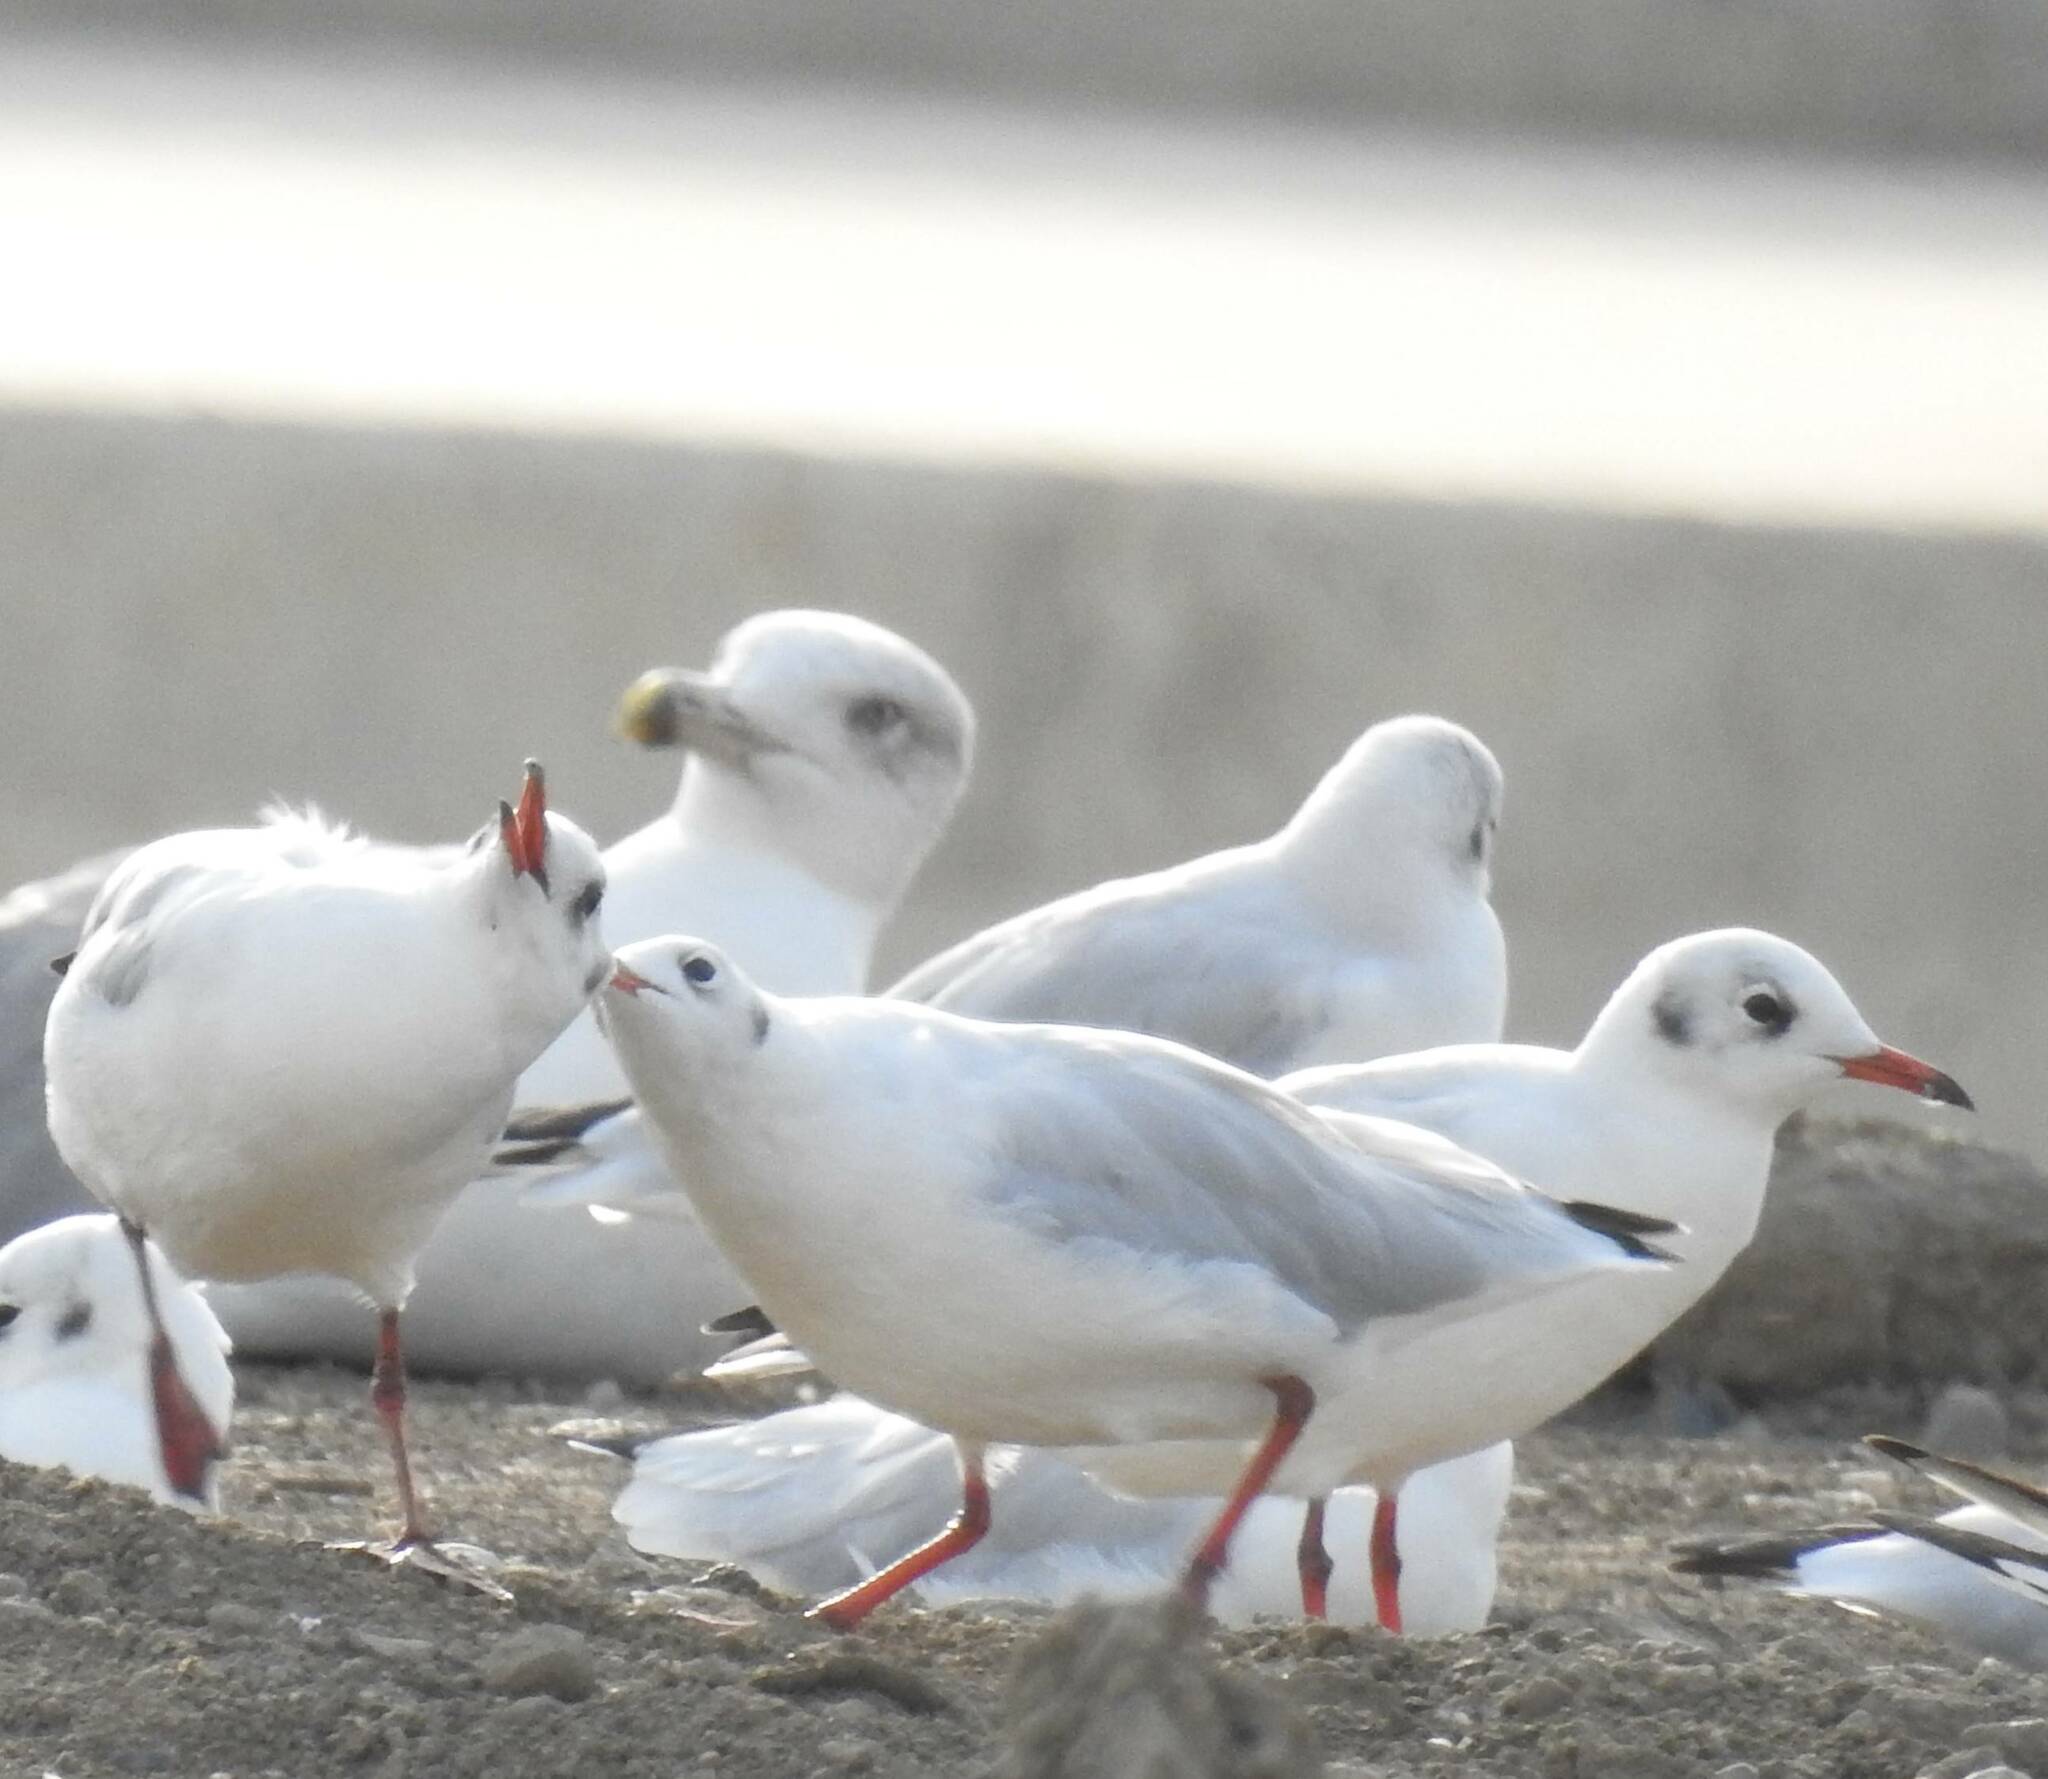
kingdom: Animalia
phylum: Chordata
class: Aves
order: Charadriiformes
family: Laridae
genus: Chroicocephalus
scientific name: Chroicocephalus ridibundus
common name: Black-headed gull
